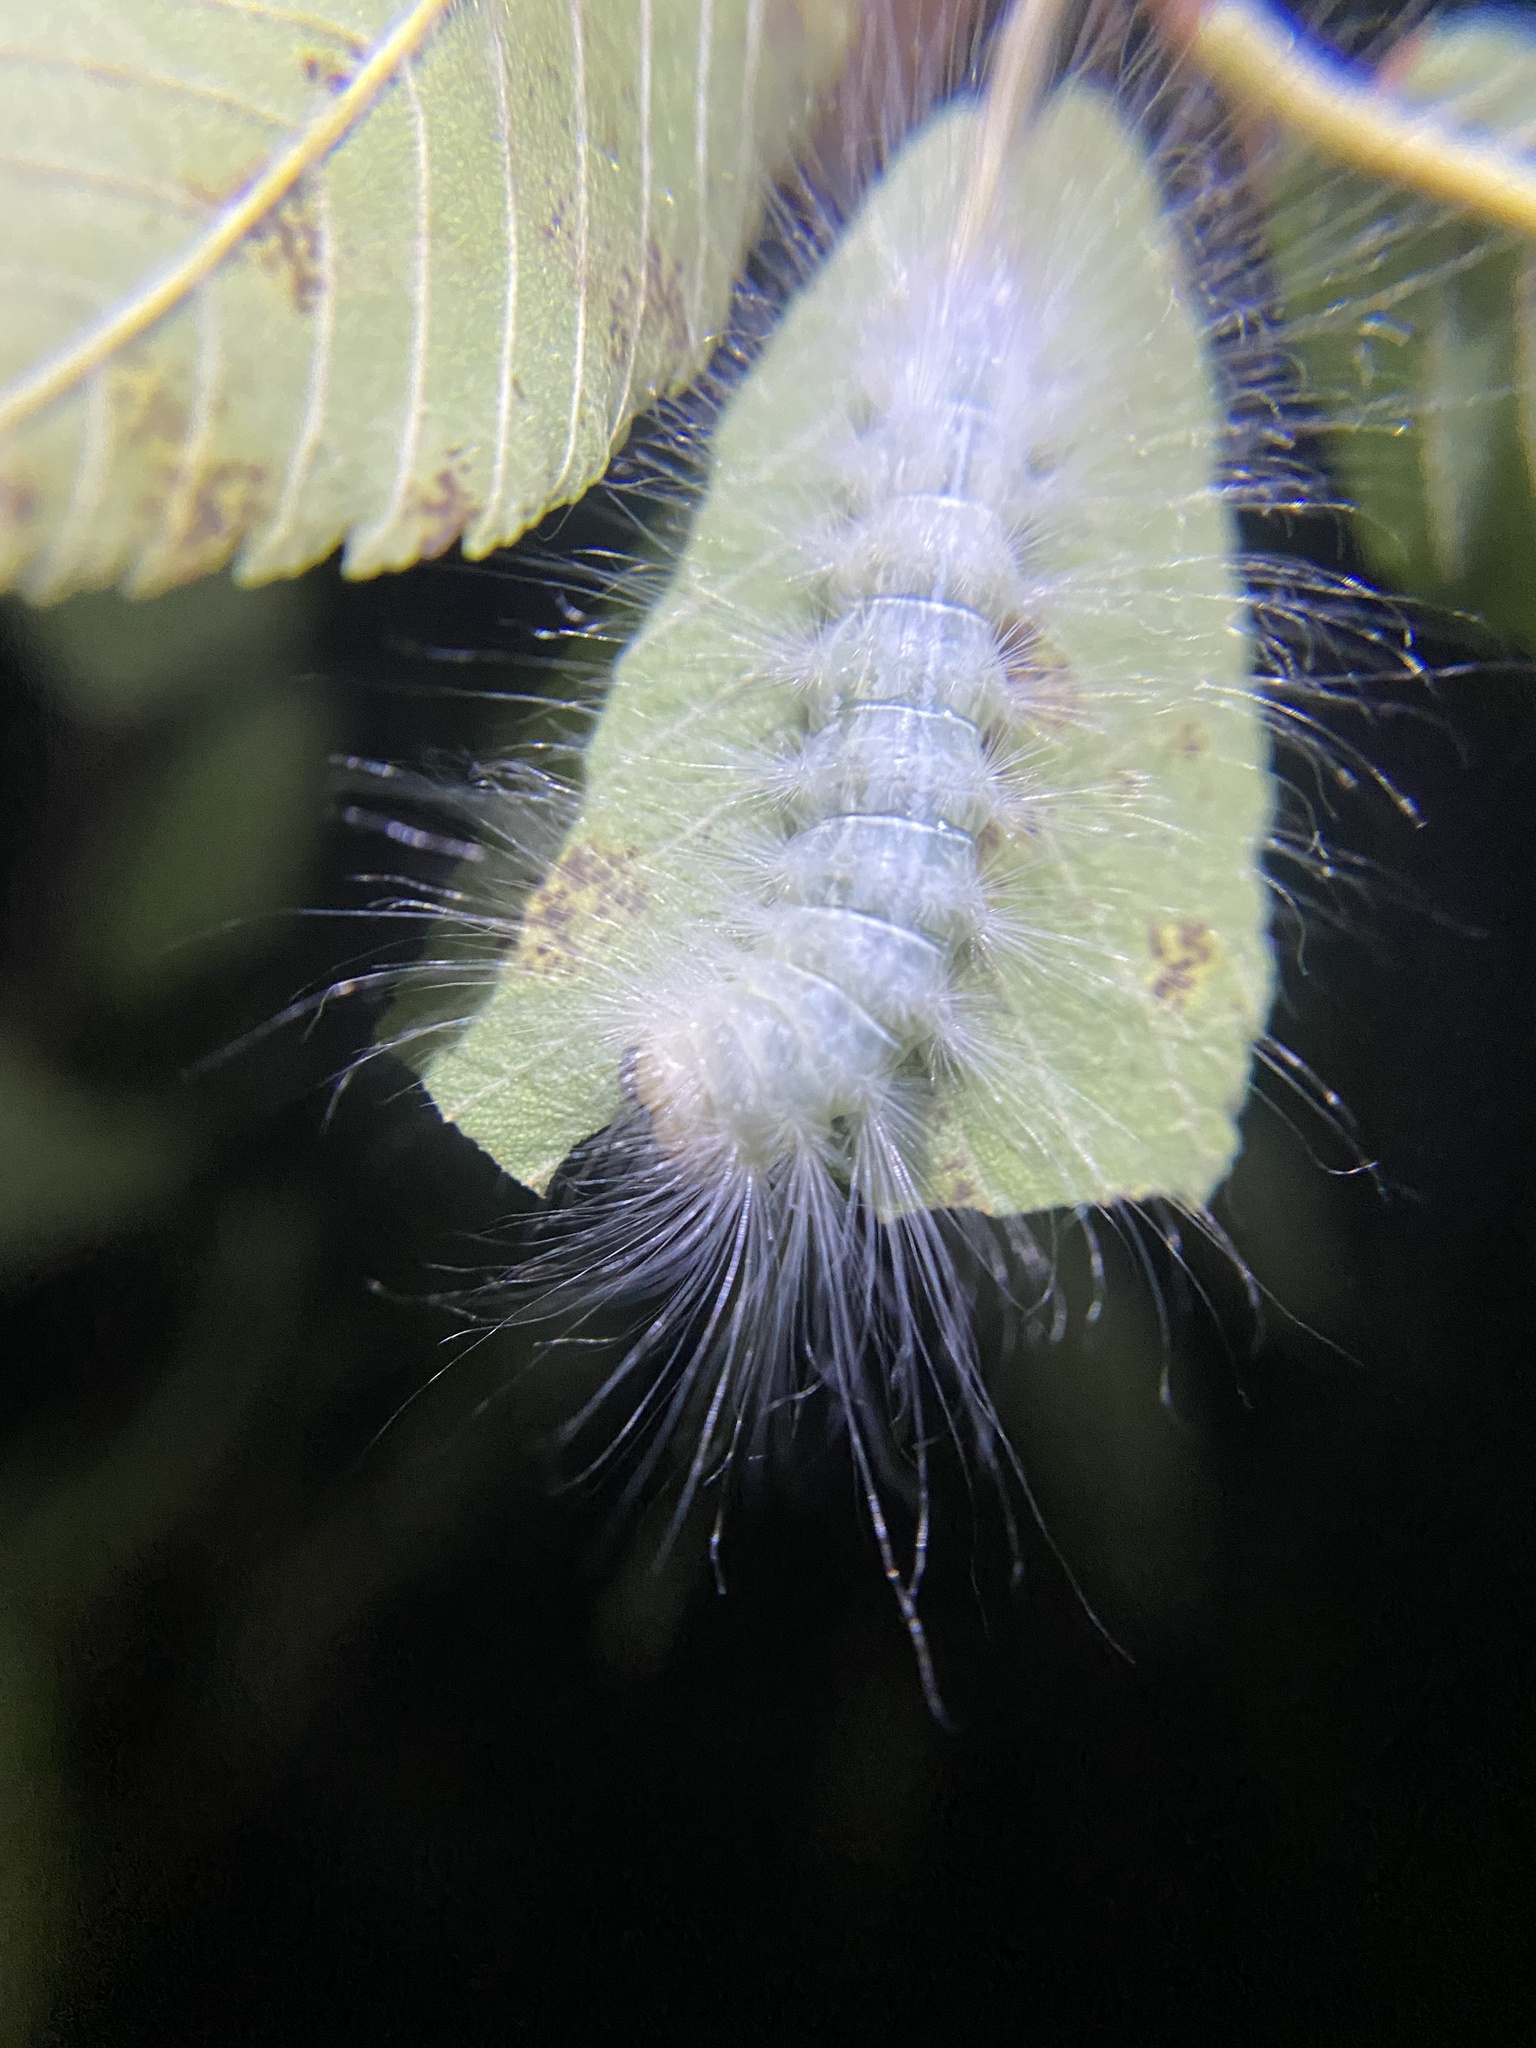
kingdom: Animalia
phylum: Arthropoda
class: Insecta
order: Lepidoptera
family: Noctuidae
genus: Charadra
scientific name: Charadra deridens
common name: Marbled tuffet
